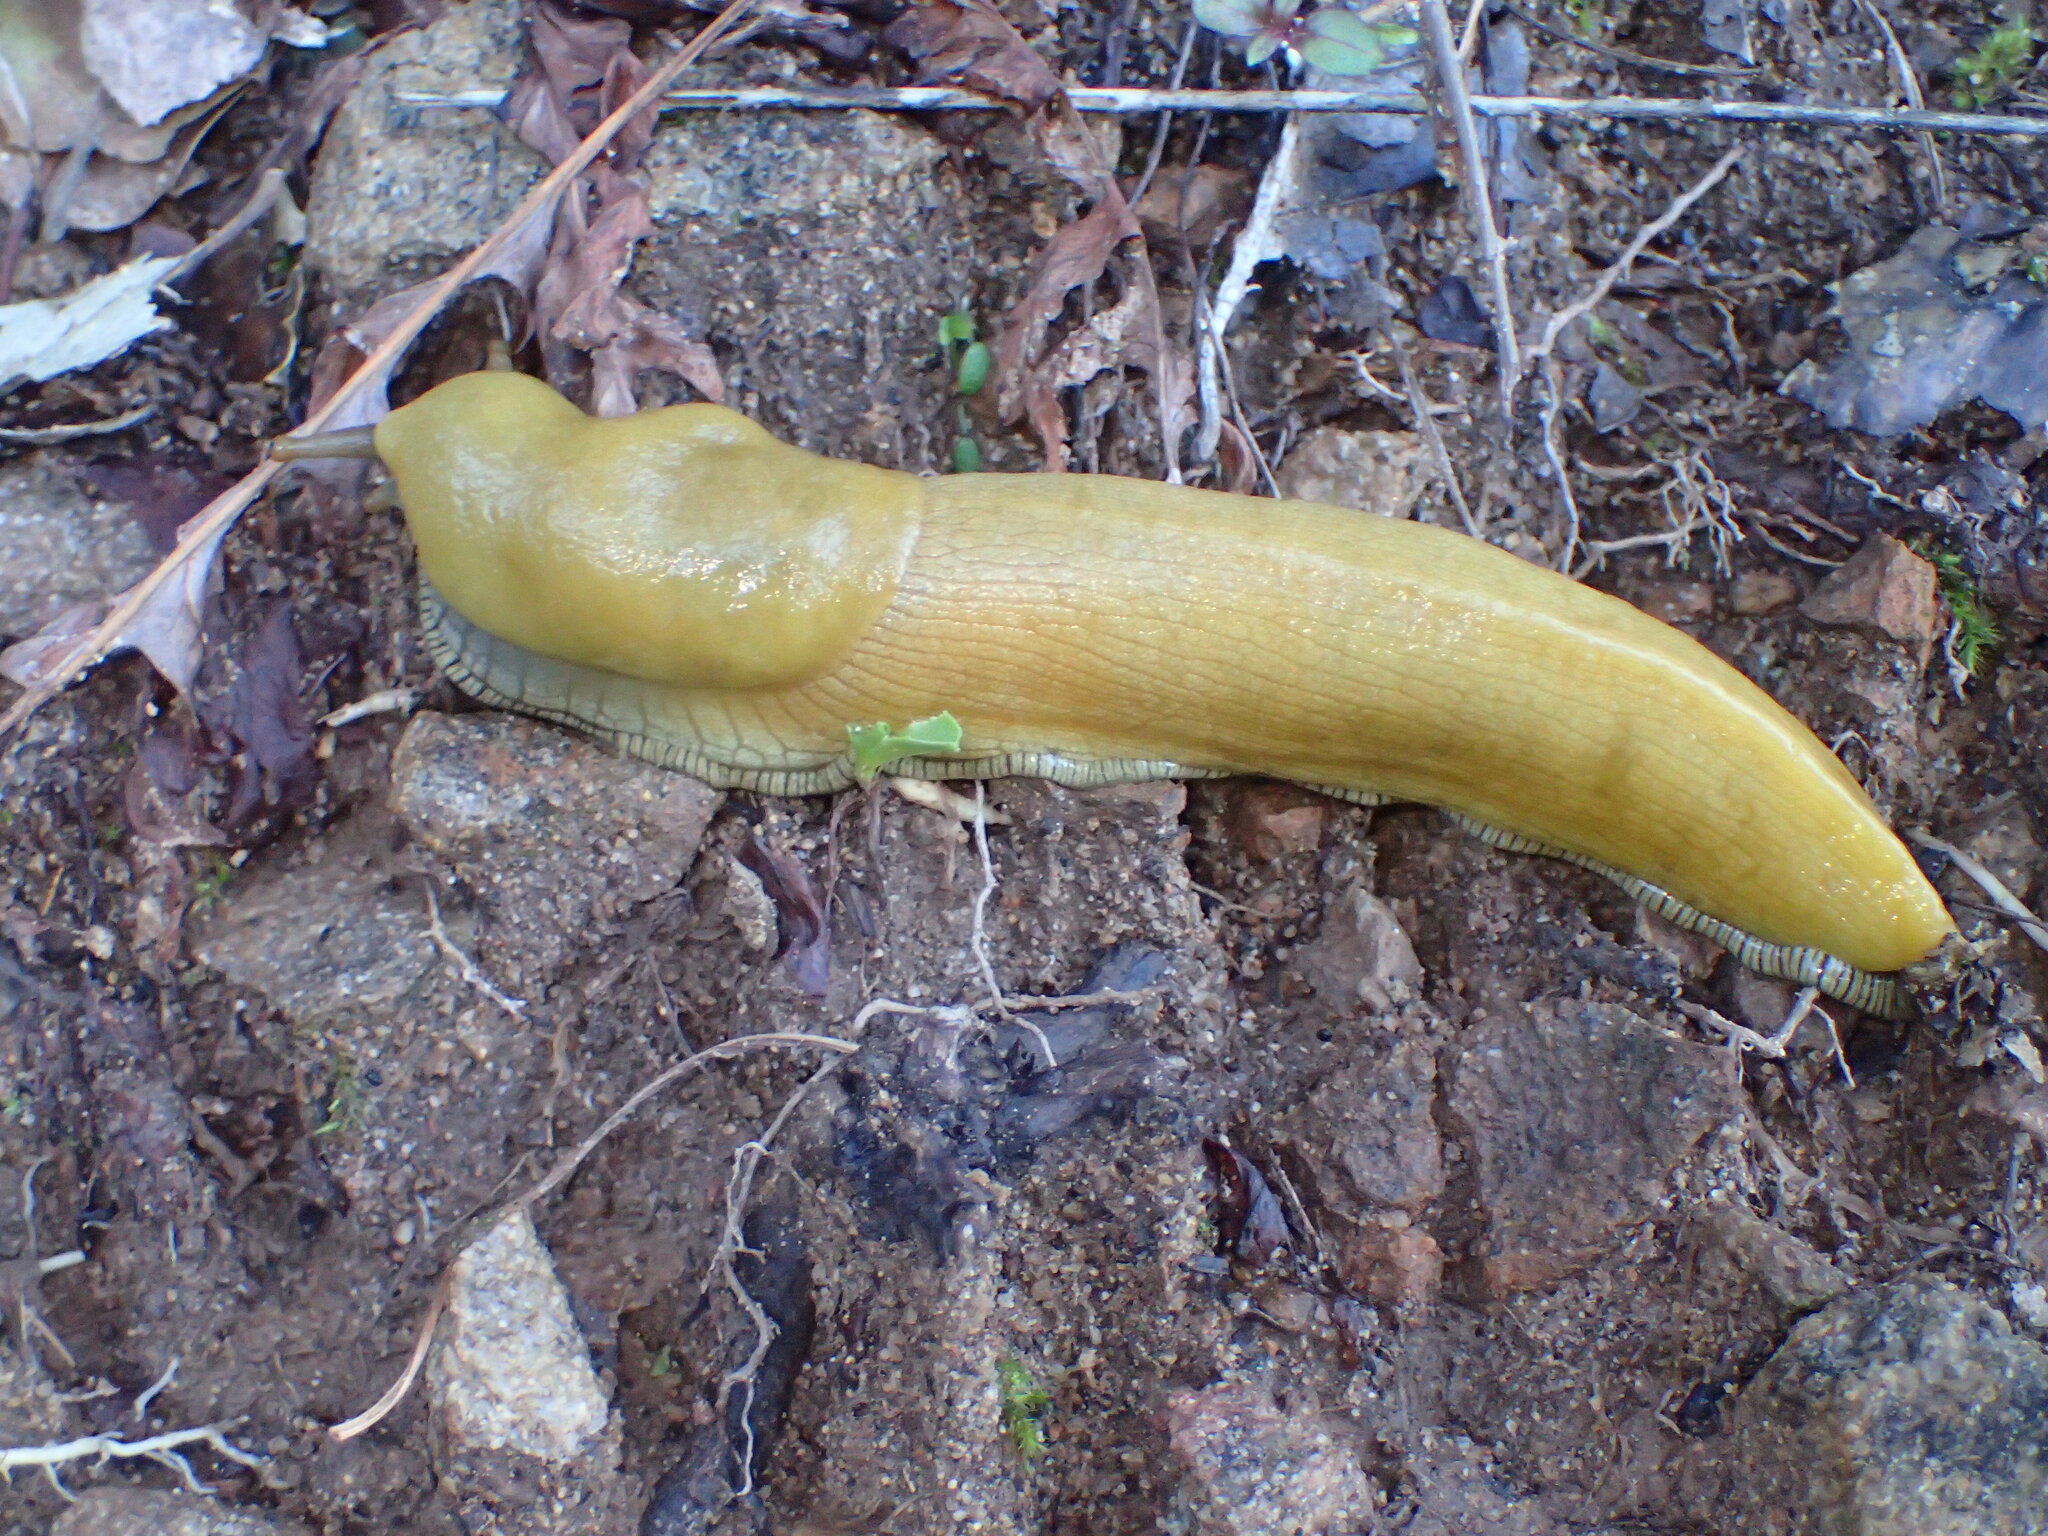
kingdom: Animalia
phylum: Mollusca
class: Gastropoda
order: Stylommatophora
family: Ariolimacidae
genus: Ariolimax
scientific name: Ariolimax stramineus
